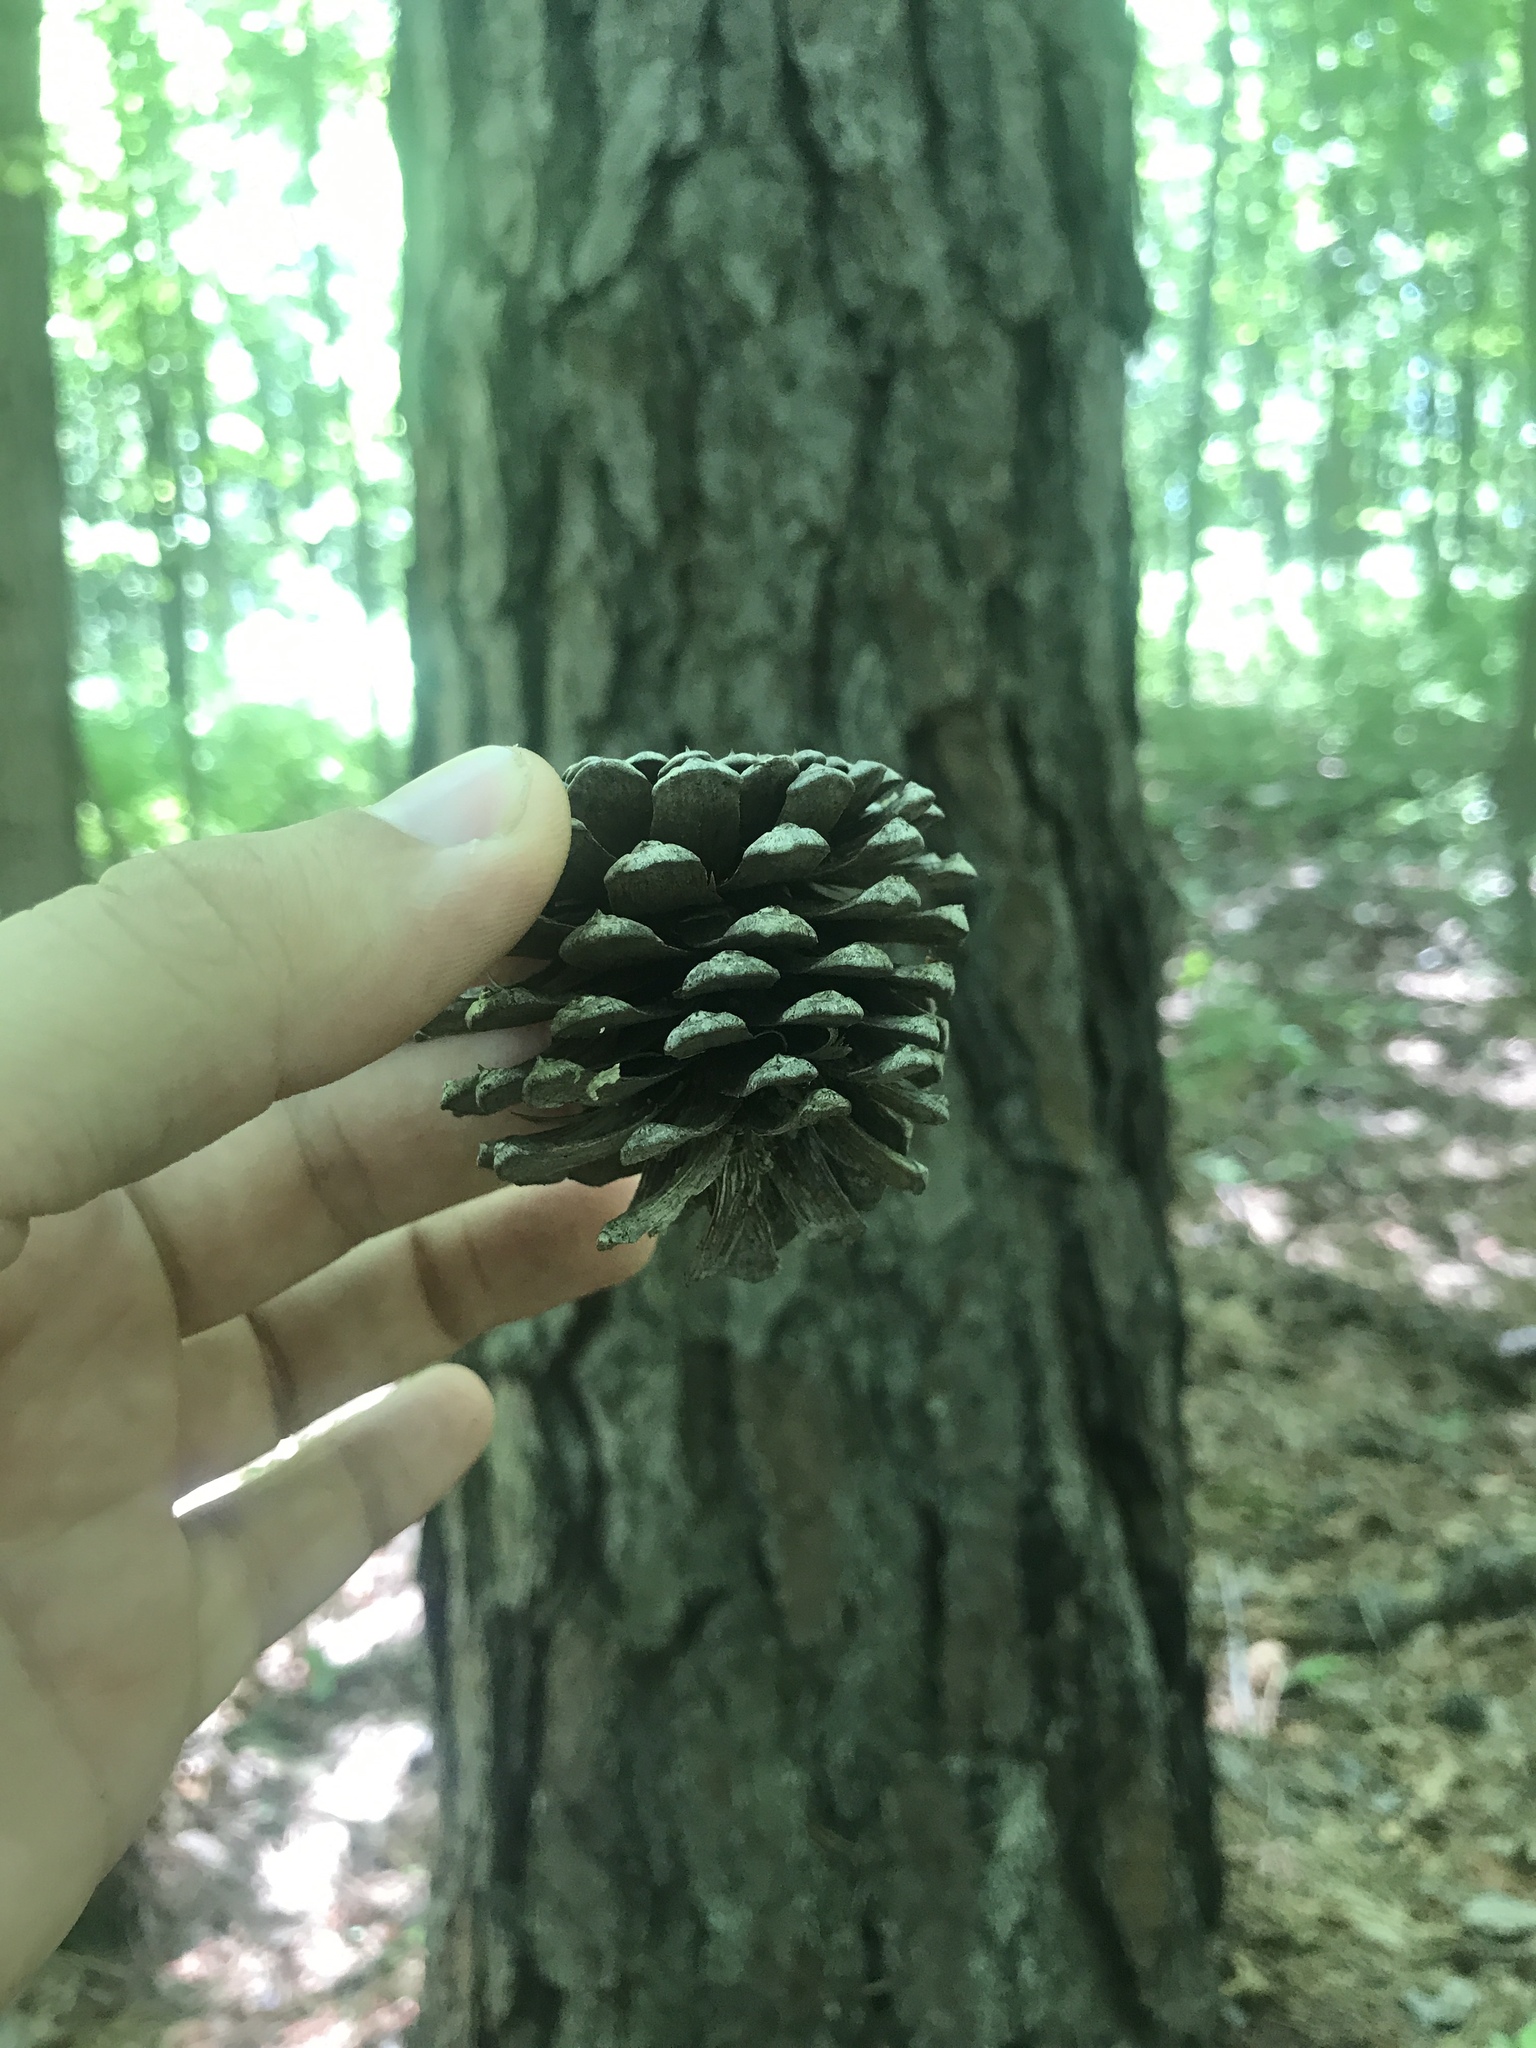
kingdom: Plantae
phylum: Tracheophyta
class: Pinopsida
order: Pinales
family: Pinaceae
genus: Pinus
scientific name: Pinus rigida
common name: Pitch pine
